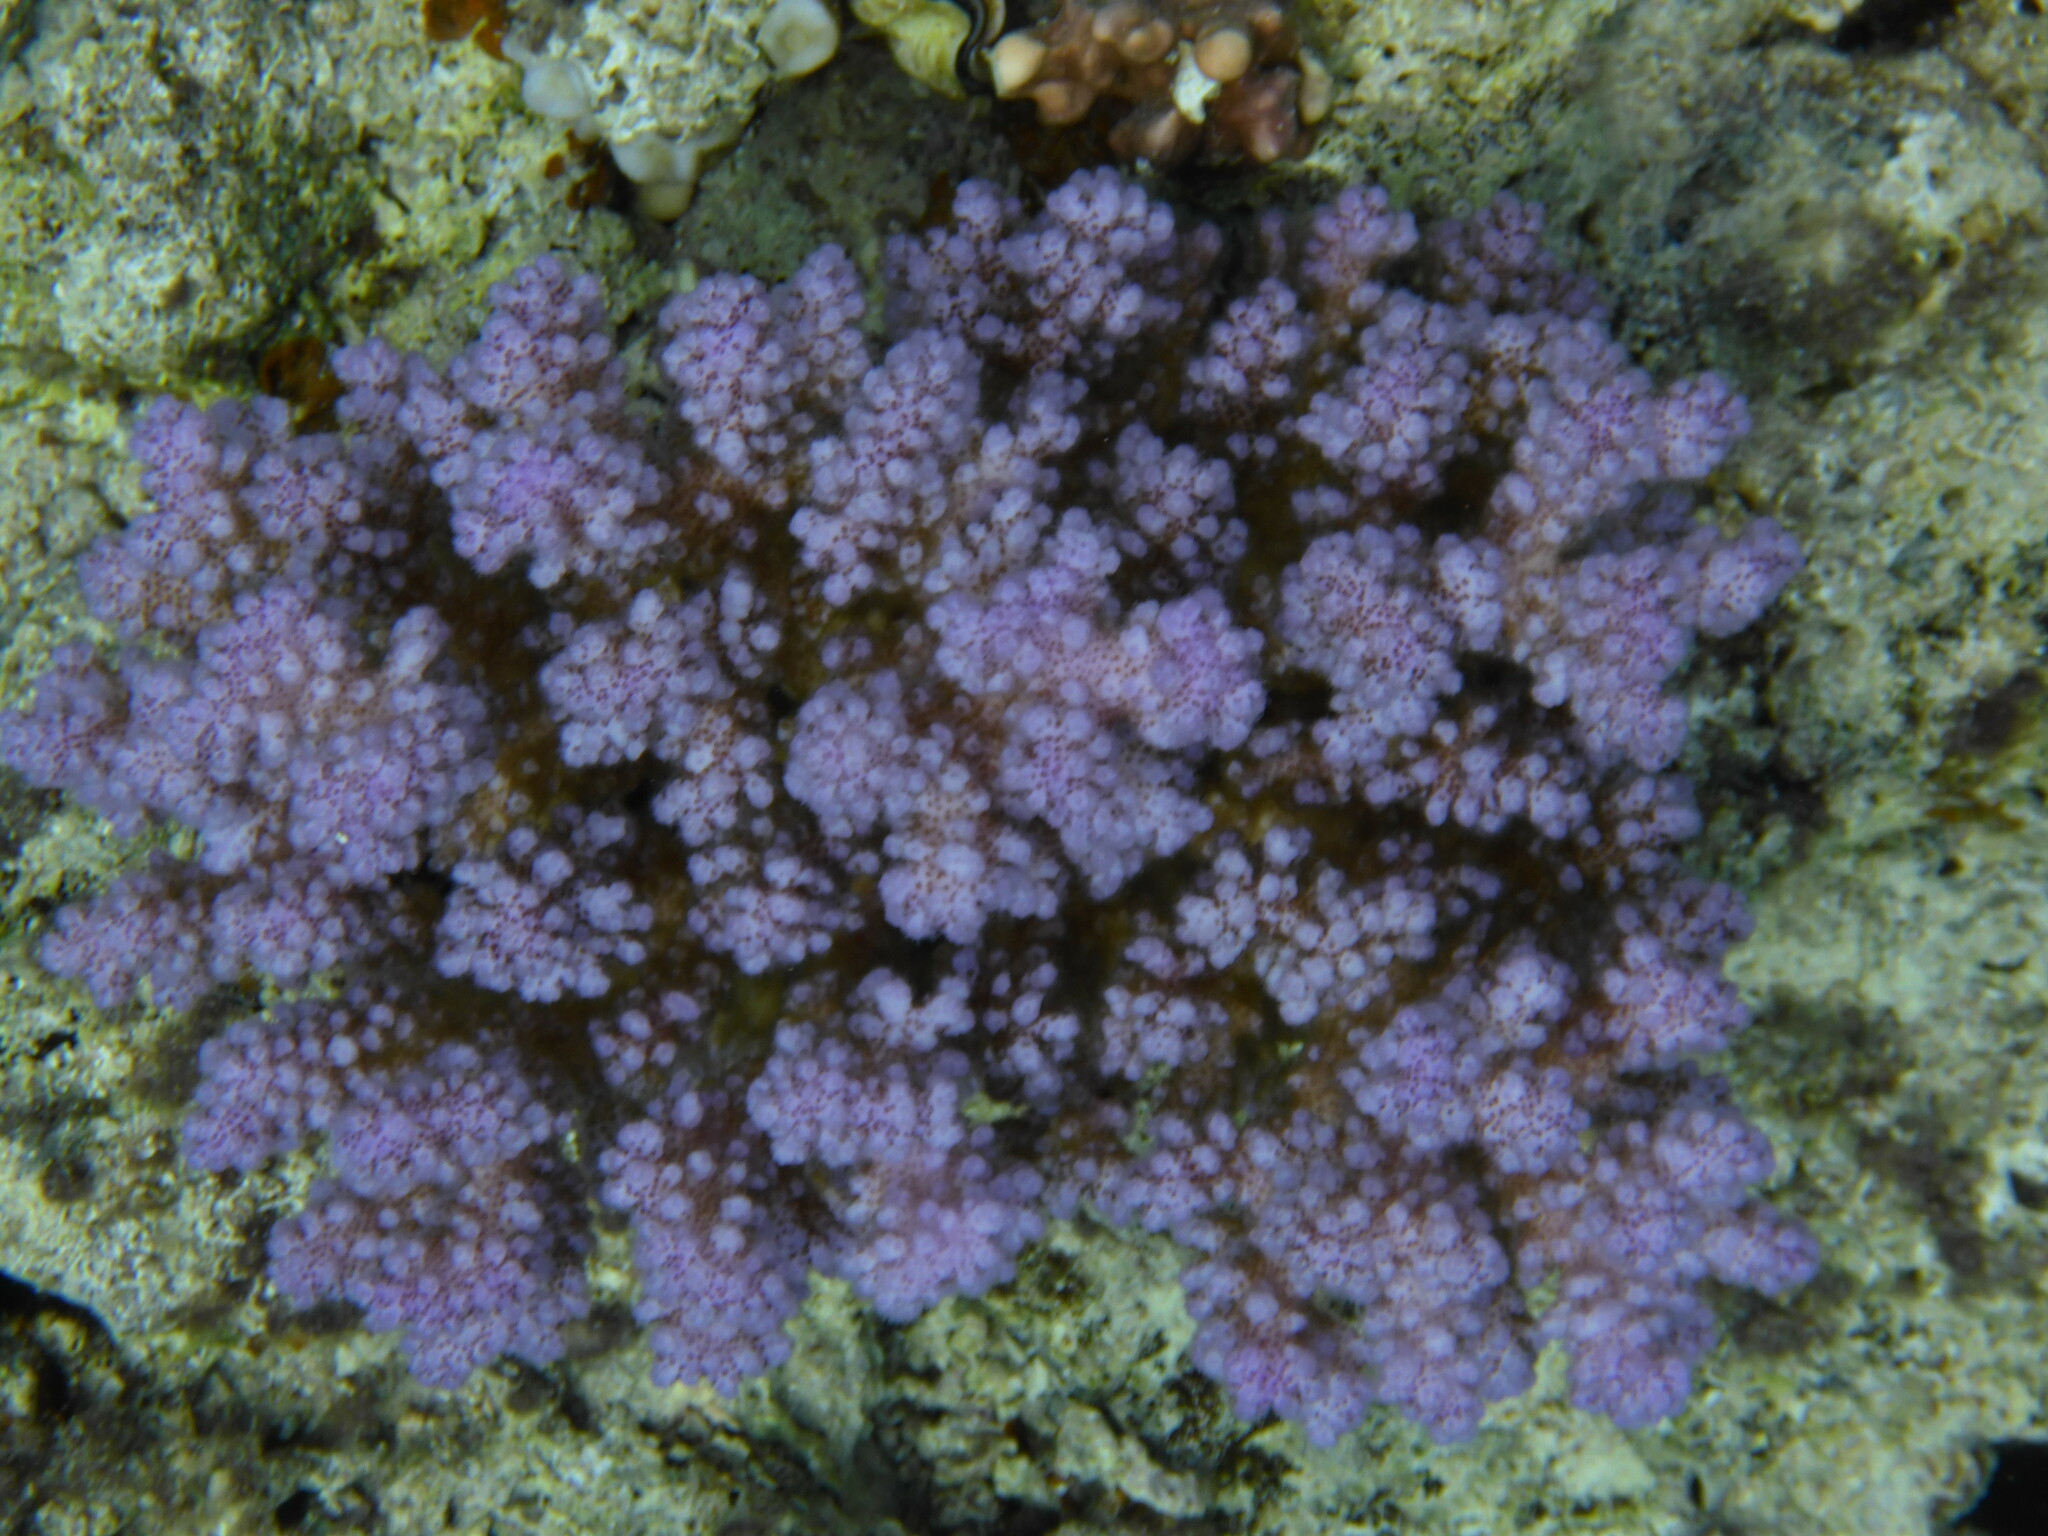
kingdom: Animalia
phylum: Cnidaria
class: Anthozoa
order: Scleractinia
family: Pocilloporidae
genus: Pocillopora
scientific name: Pocillopora verrucosa
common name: Cauliflower coral
